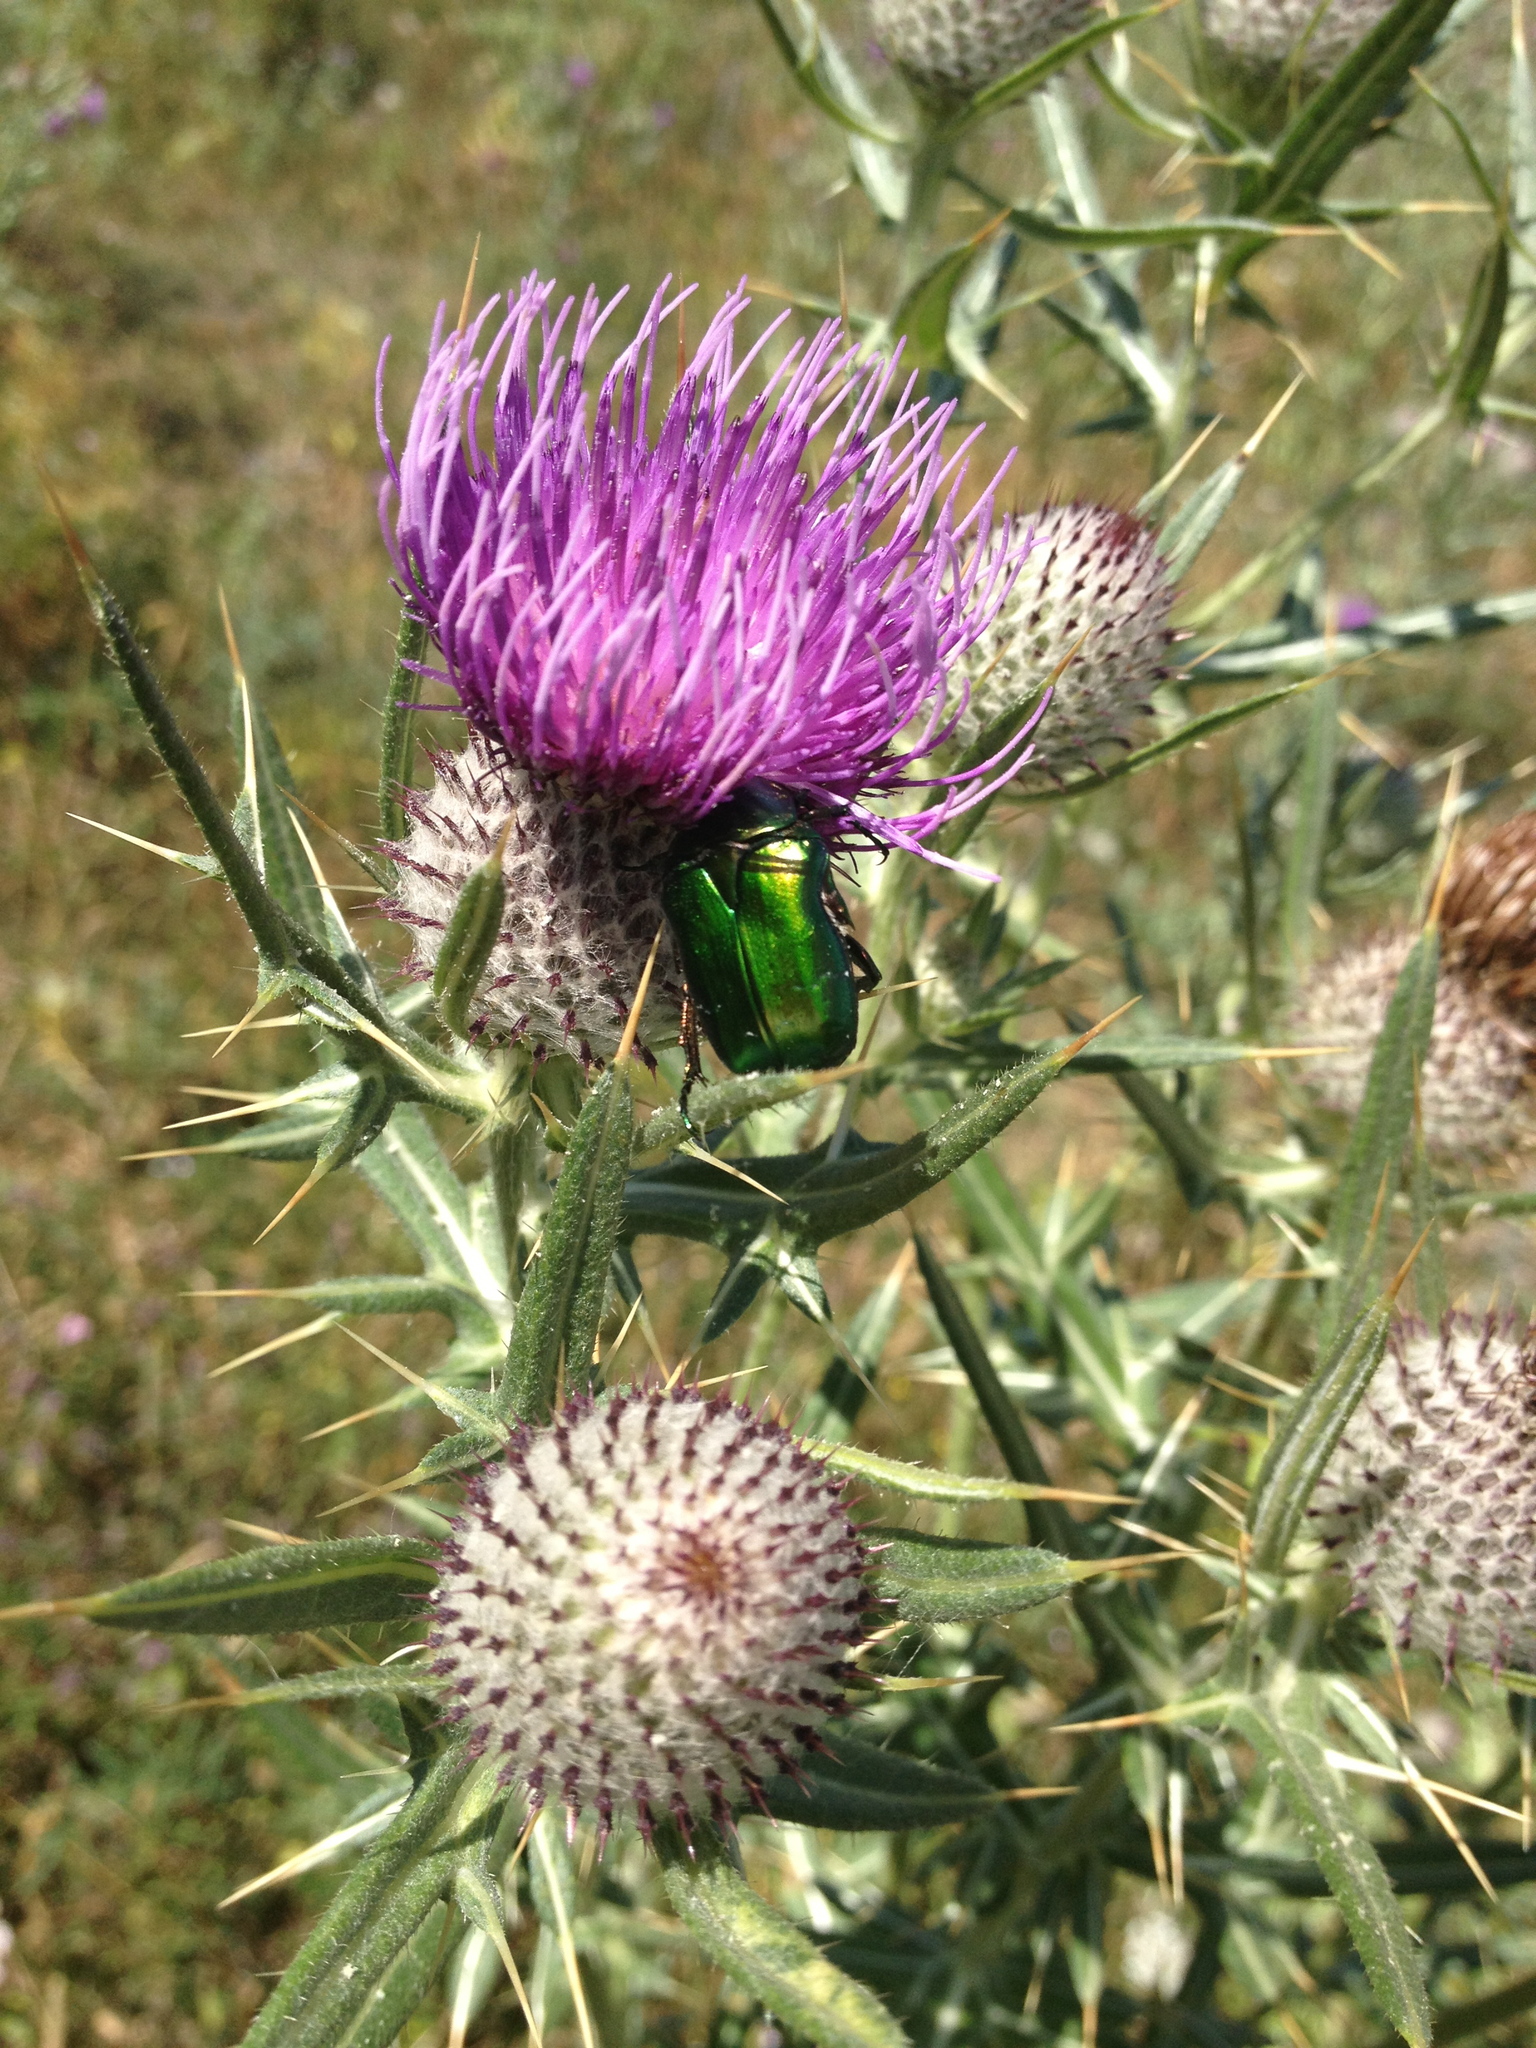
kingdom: Animalia
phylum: Arthropoda
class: Insecta
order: Coleoptera
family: Scarabaeidae
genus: Cetonia
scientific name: Cetonia aurata
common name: Rose chafer
